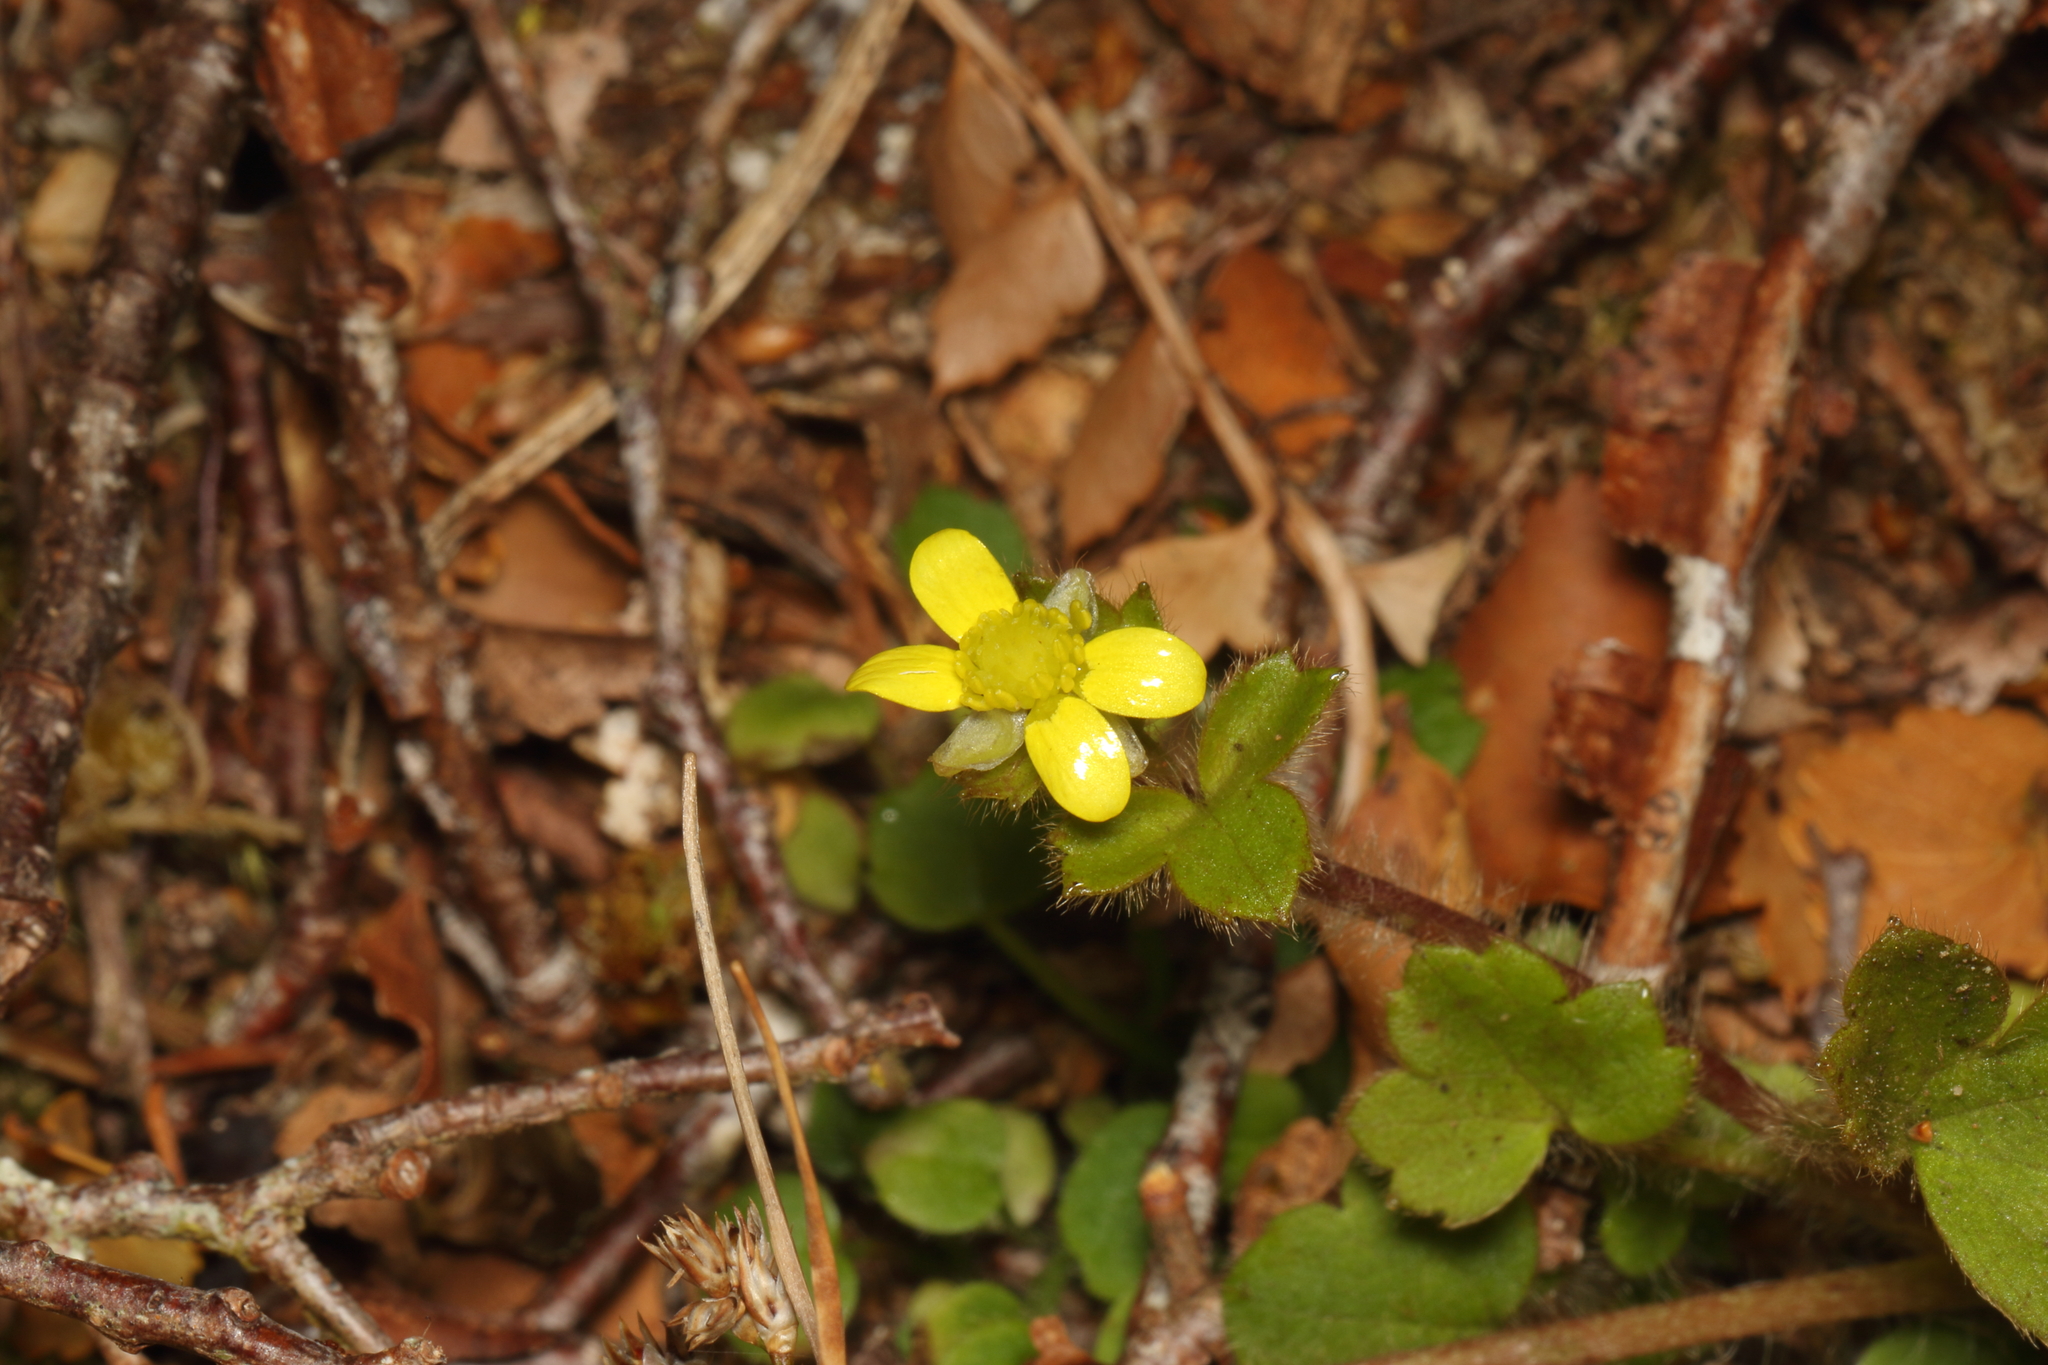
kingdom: Plantae
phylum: Tracheophyta
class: Magnoliopsida
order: Ranunculales
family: Ranunculaceae
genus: Ranunculus
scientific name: Ranunculus multiscapus
